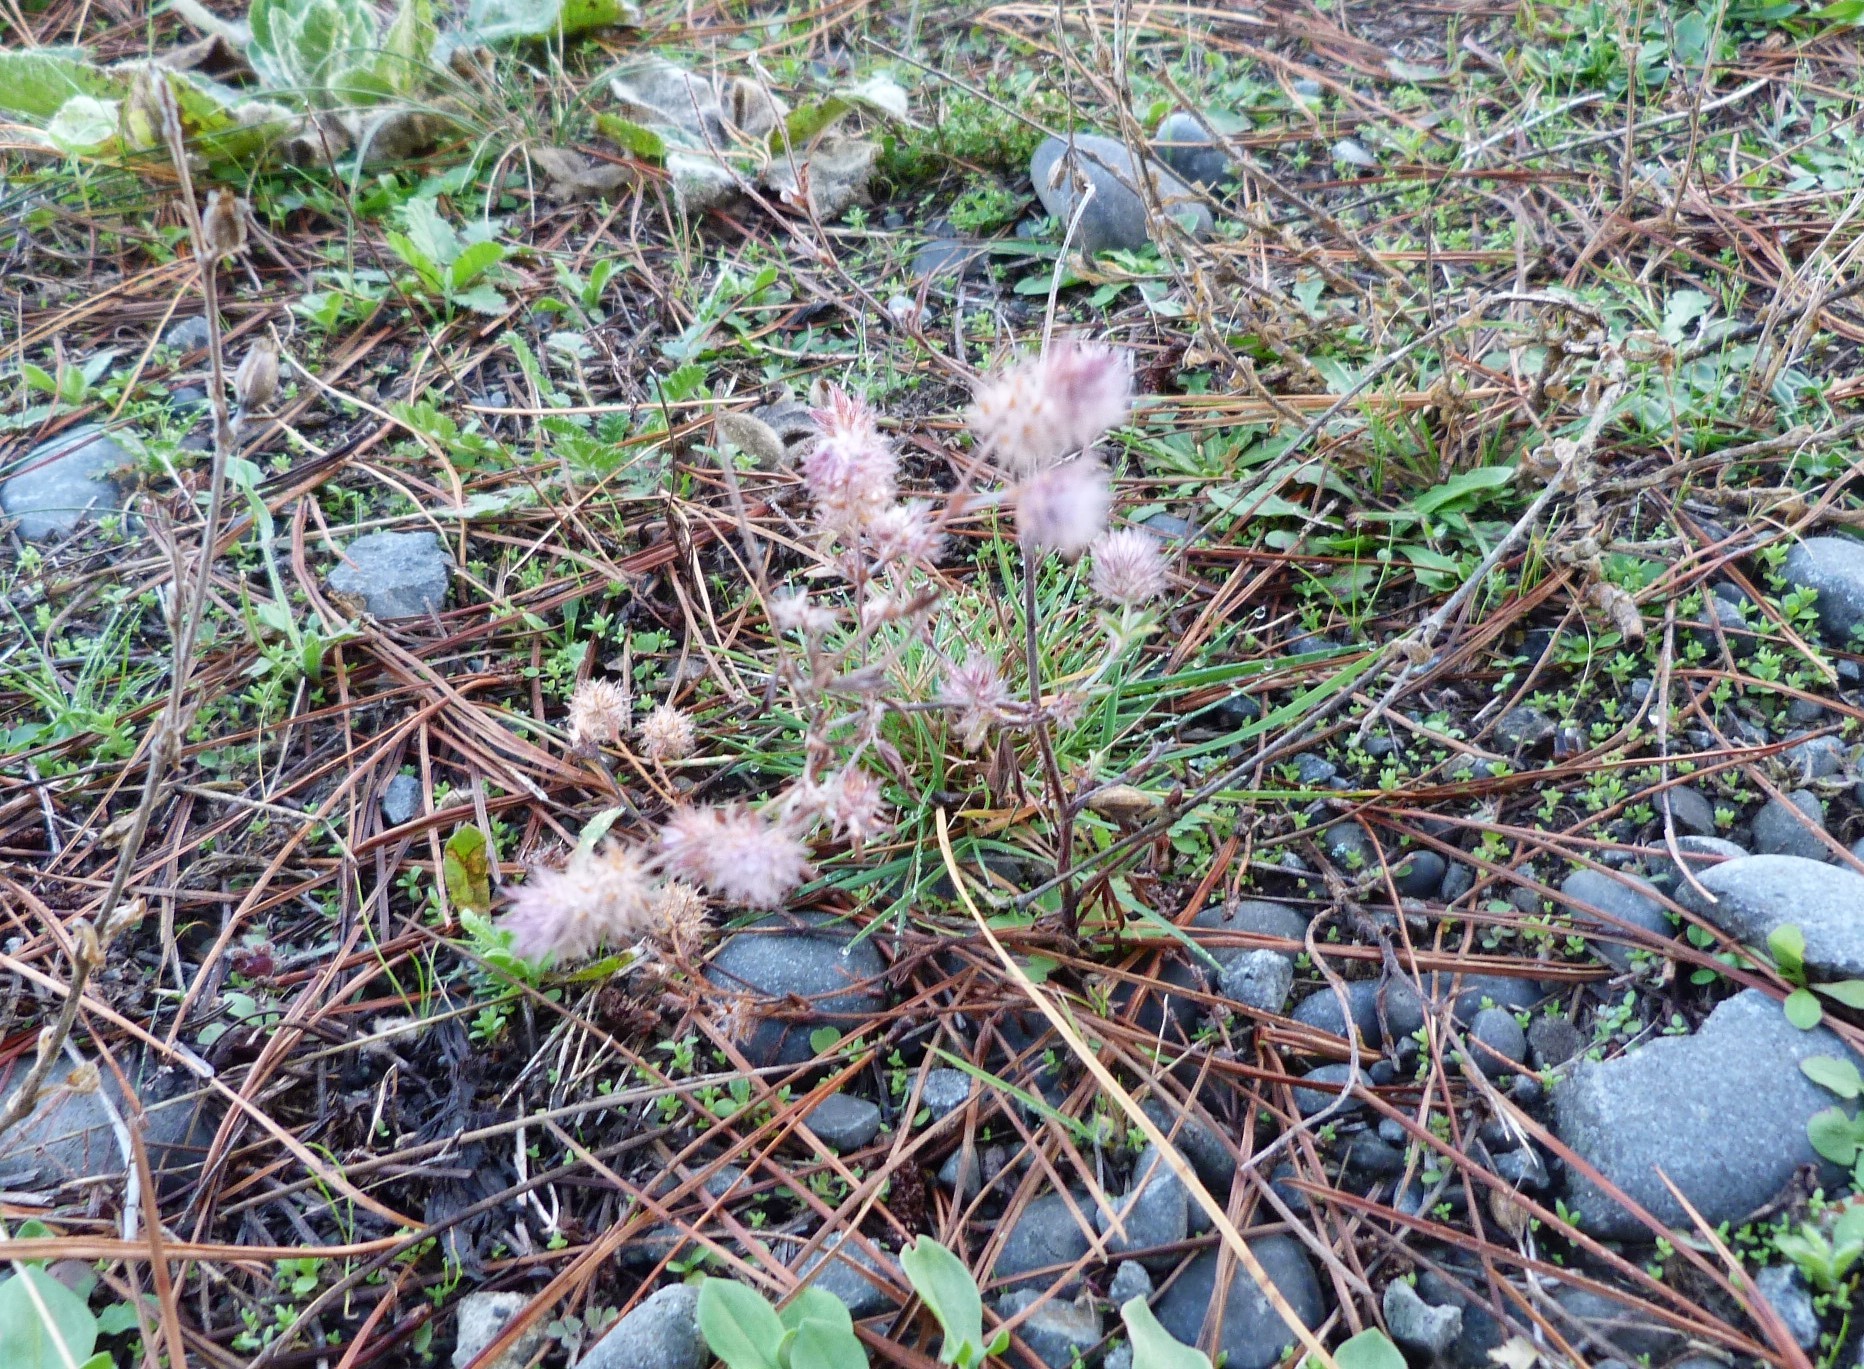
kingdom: Plantae
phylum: Tracheophyta
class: Magnoliopsida
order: Fabales
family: Fabaceae
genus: Trifolium
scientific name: Trifolium arvense
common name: Hare's-foot clover
